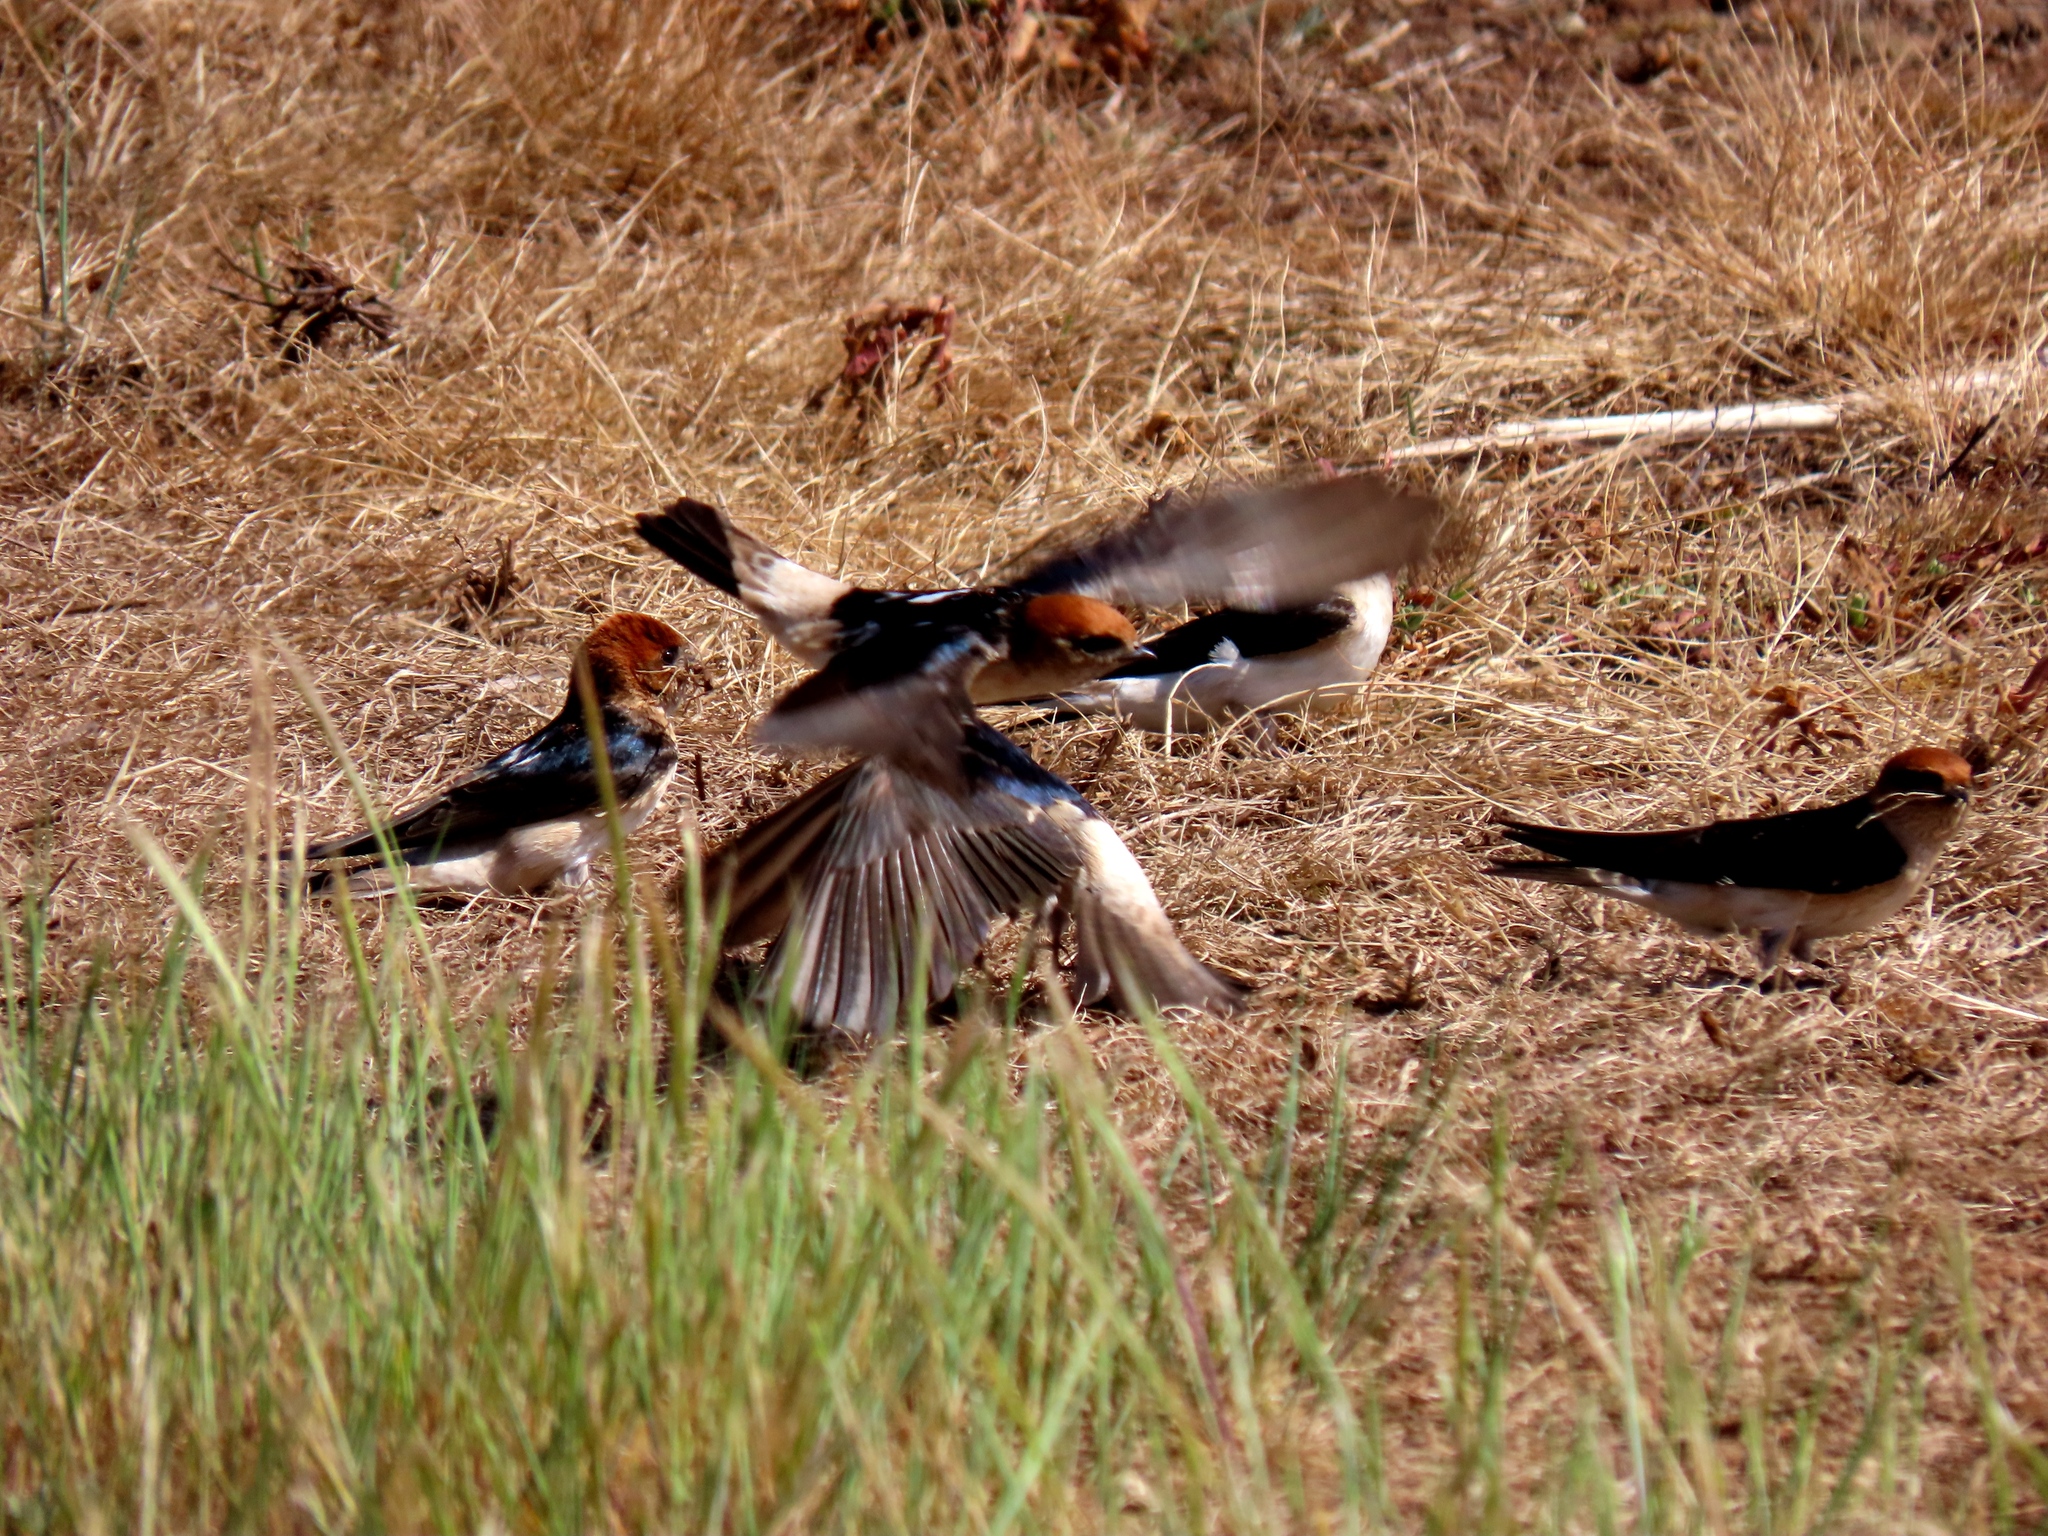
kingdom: Animalia
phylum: Chordata
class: Aves
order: Passeriformes
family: Hirundinidae
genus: Petrochelidon
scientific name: Petrochelidon ariel
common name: Fairy martin
